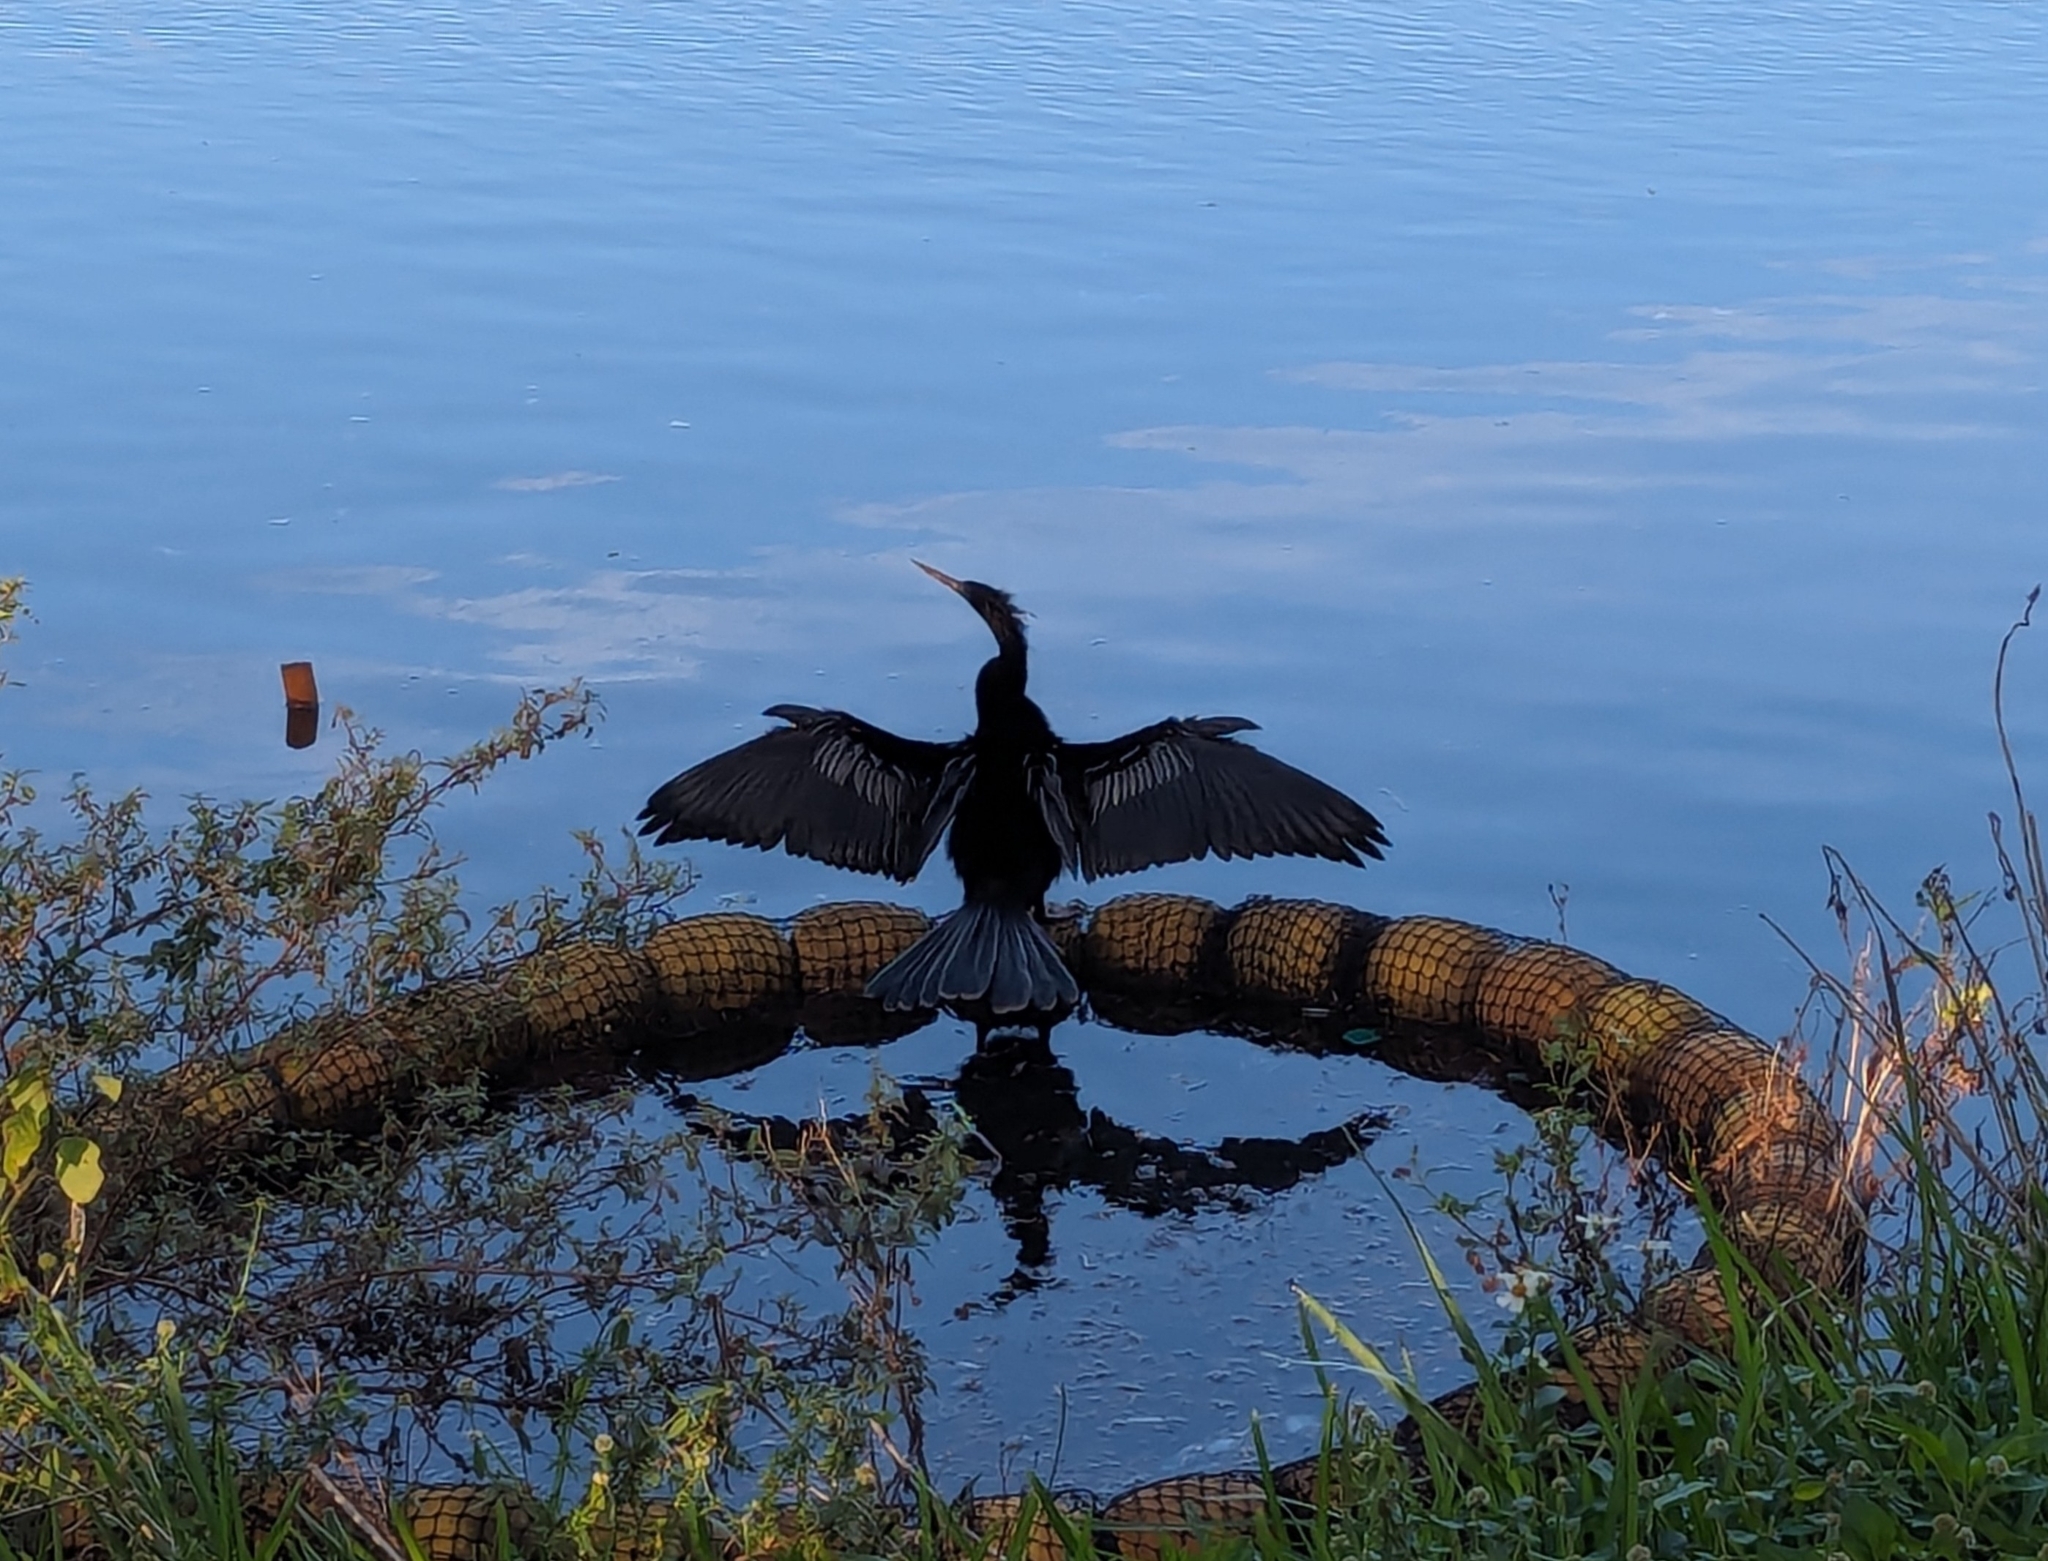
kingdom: Animalia
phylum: Chordata
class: Aves
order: Suliformes
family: Anhingidae
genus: Anhinga
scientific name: Anhinga anhinga
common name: Anhinga
